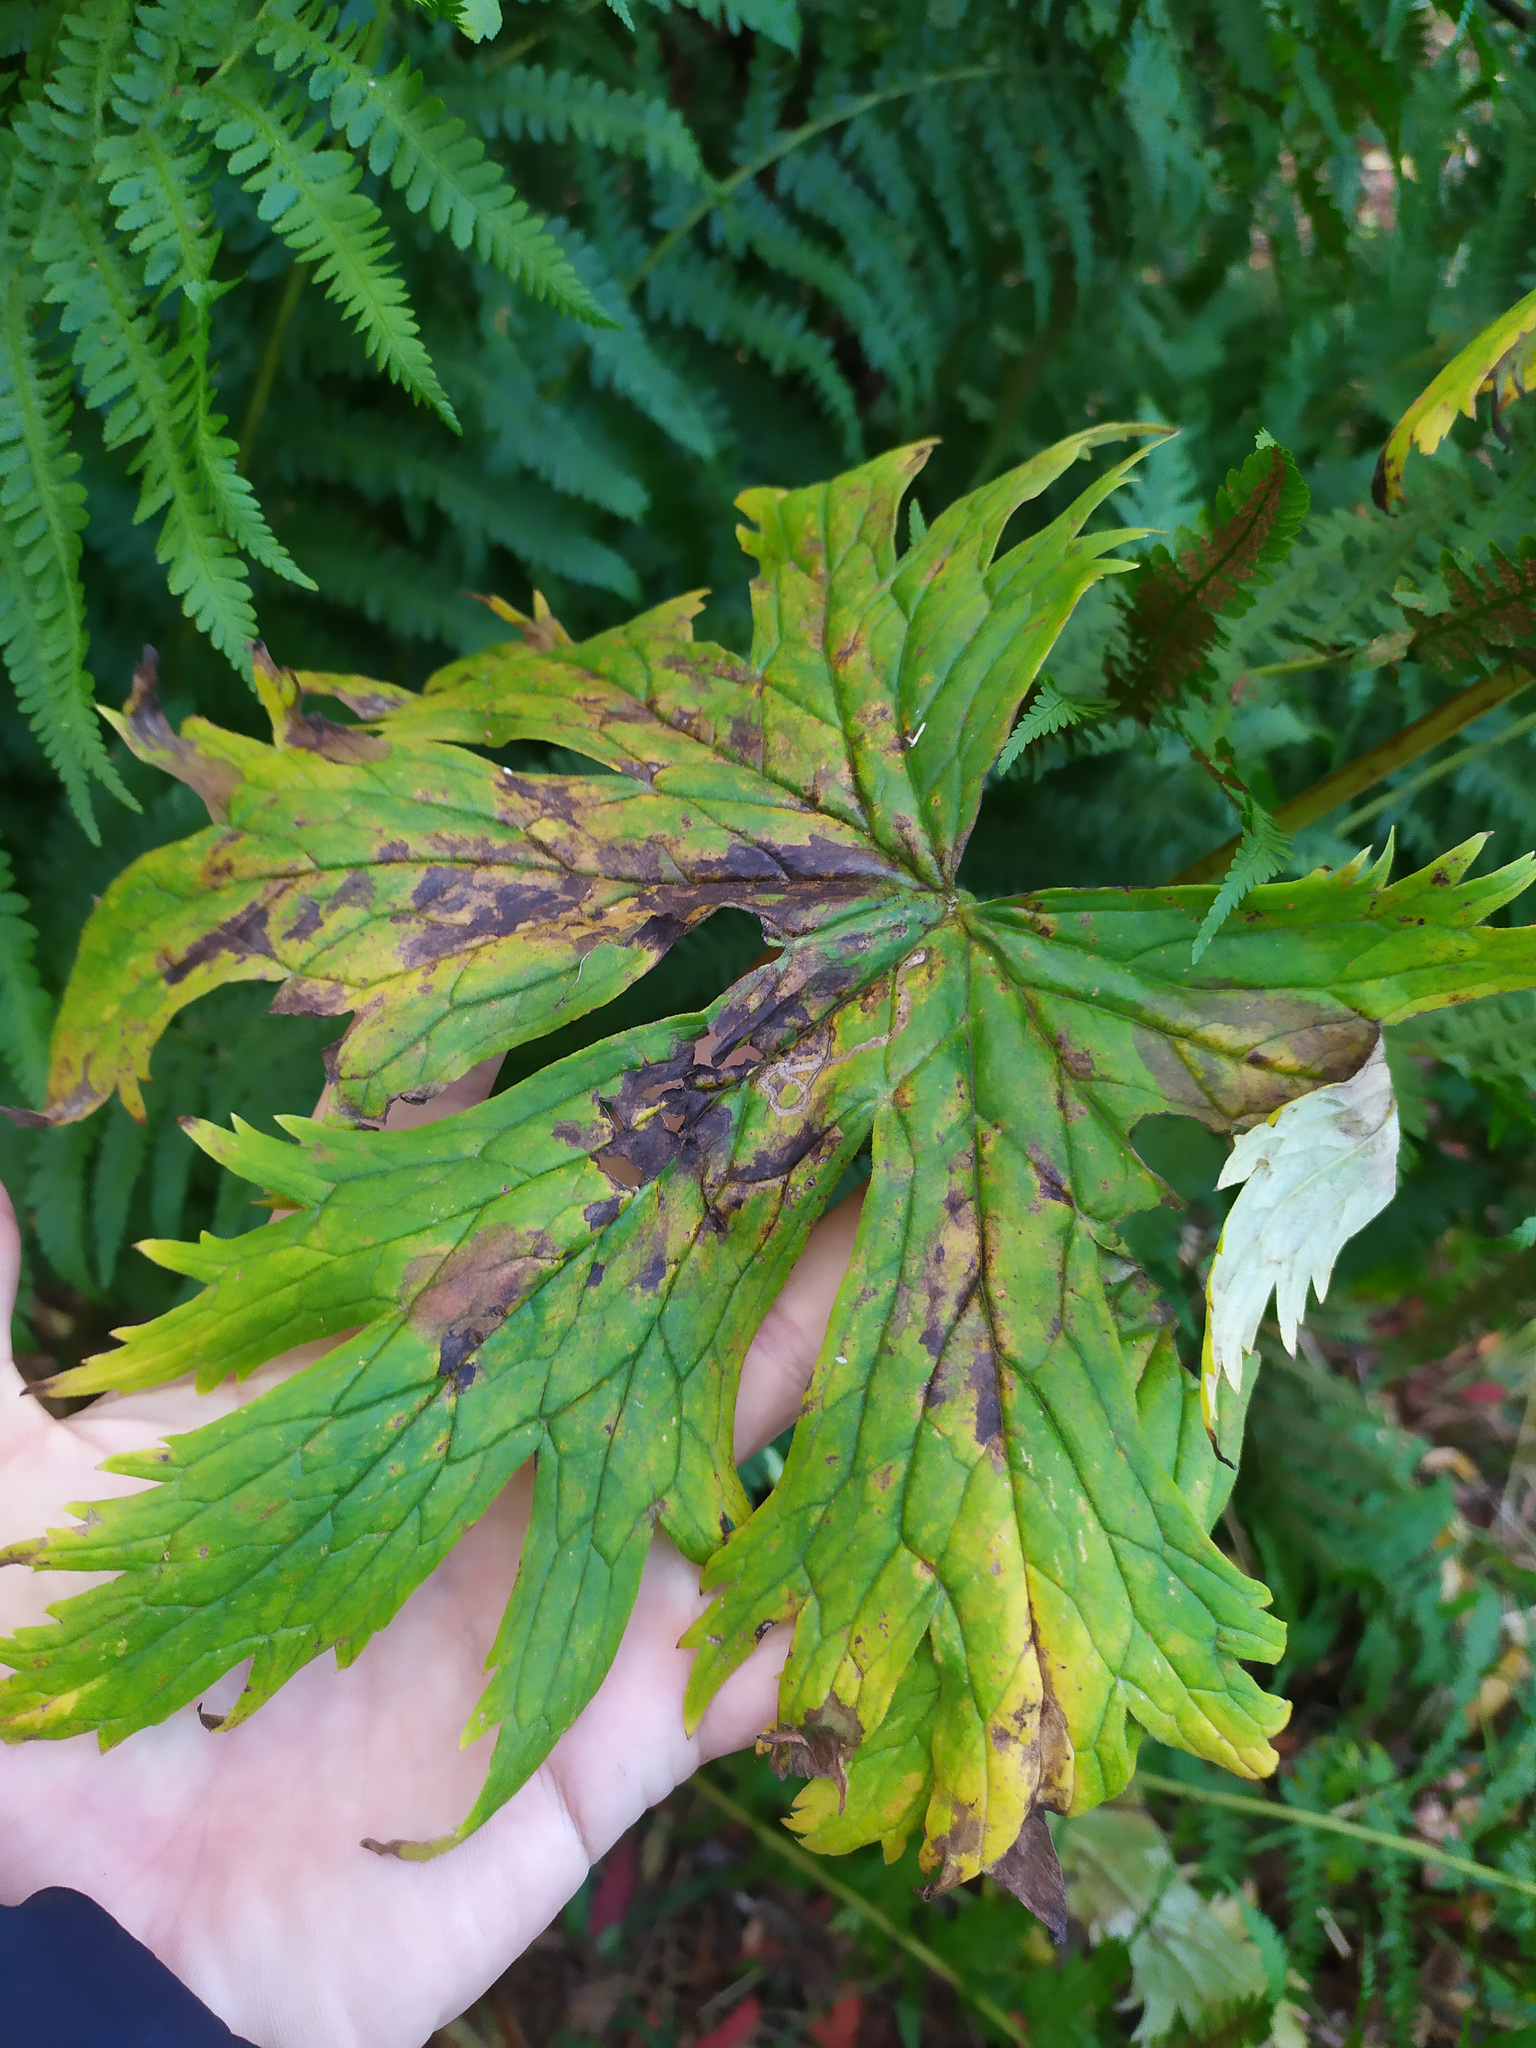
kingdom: Plantae
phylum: Tracheophyta
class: Magnoliopsida
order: Ranunculales
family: Ranunculaceae
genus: Aconitum
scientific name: Aconitum septentrionale
